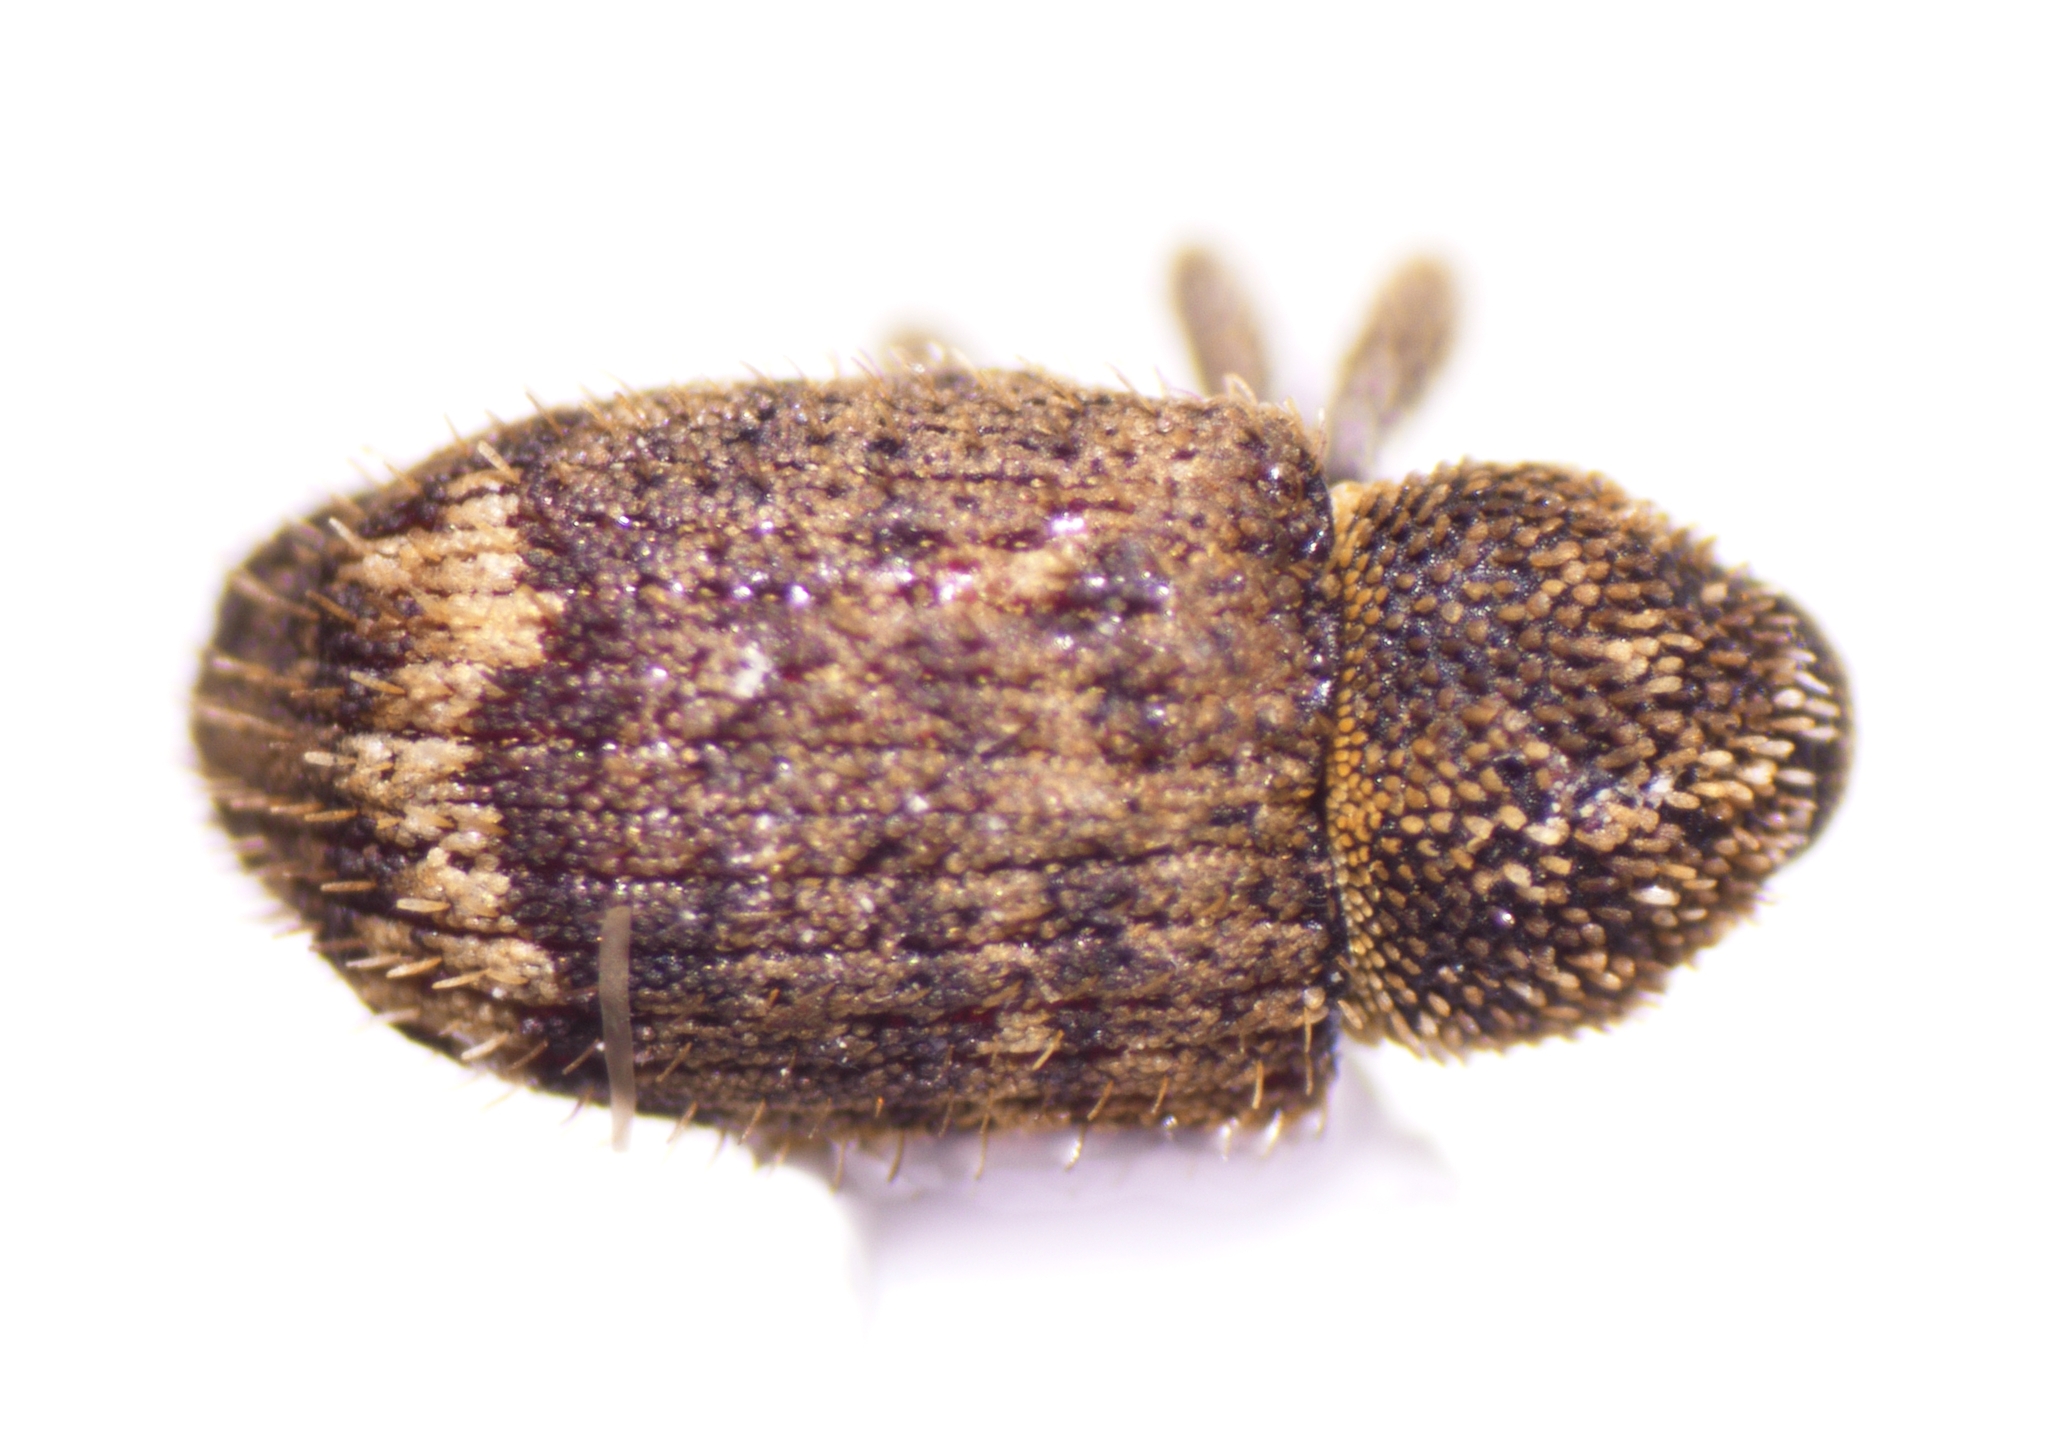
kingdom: Animalia
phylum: Arthropoda
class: Insecta
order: Coleoptera
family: Curculionidae
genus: Euscepes
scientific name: Euscepes postfasciatus
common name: West indian sweet potato weevil
